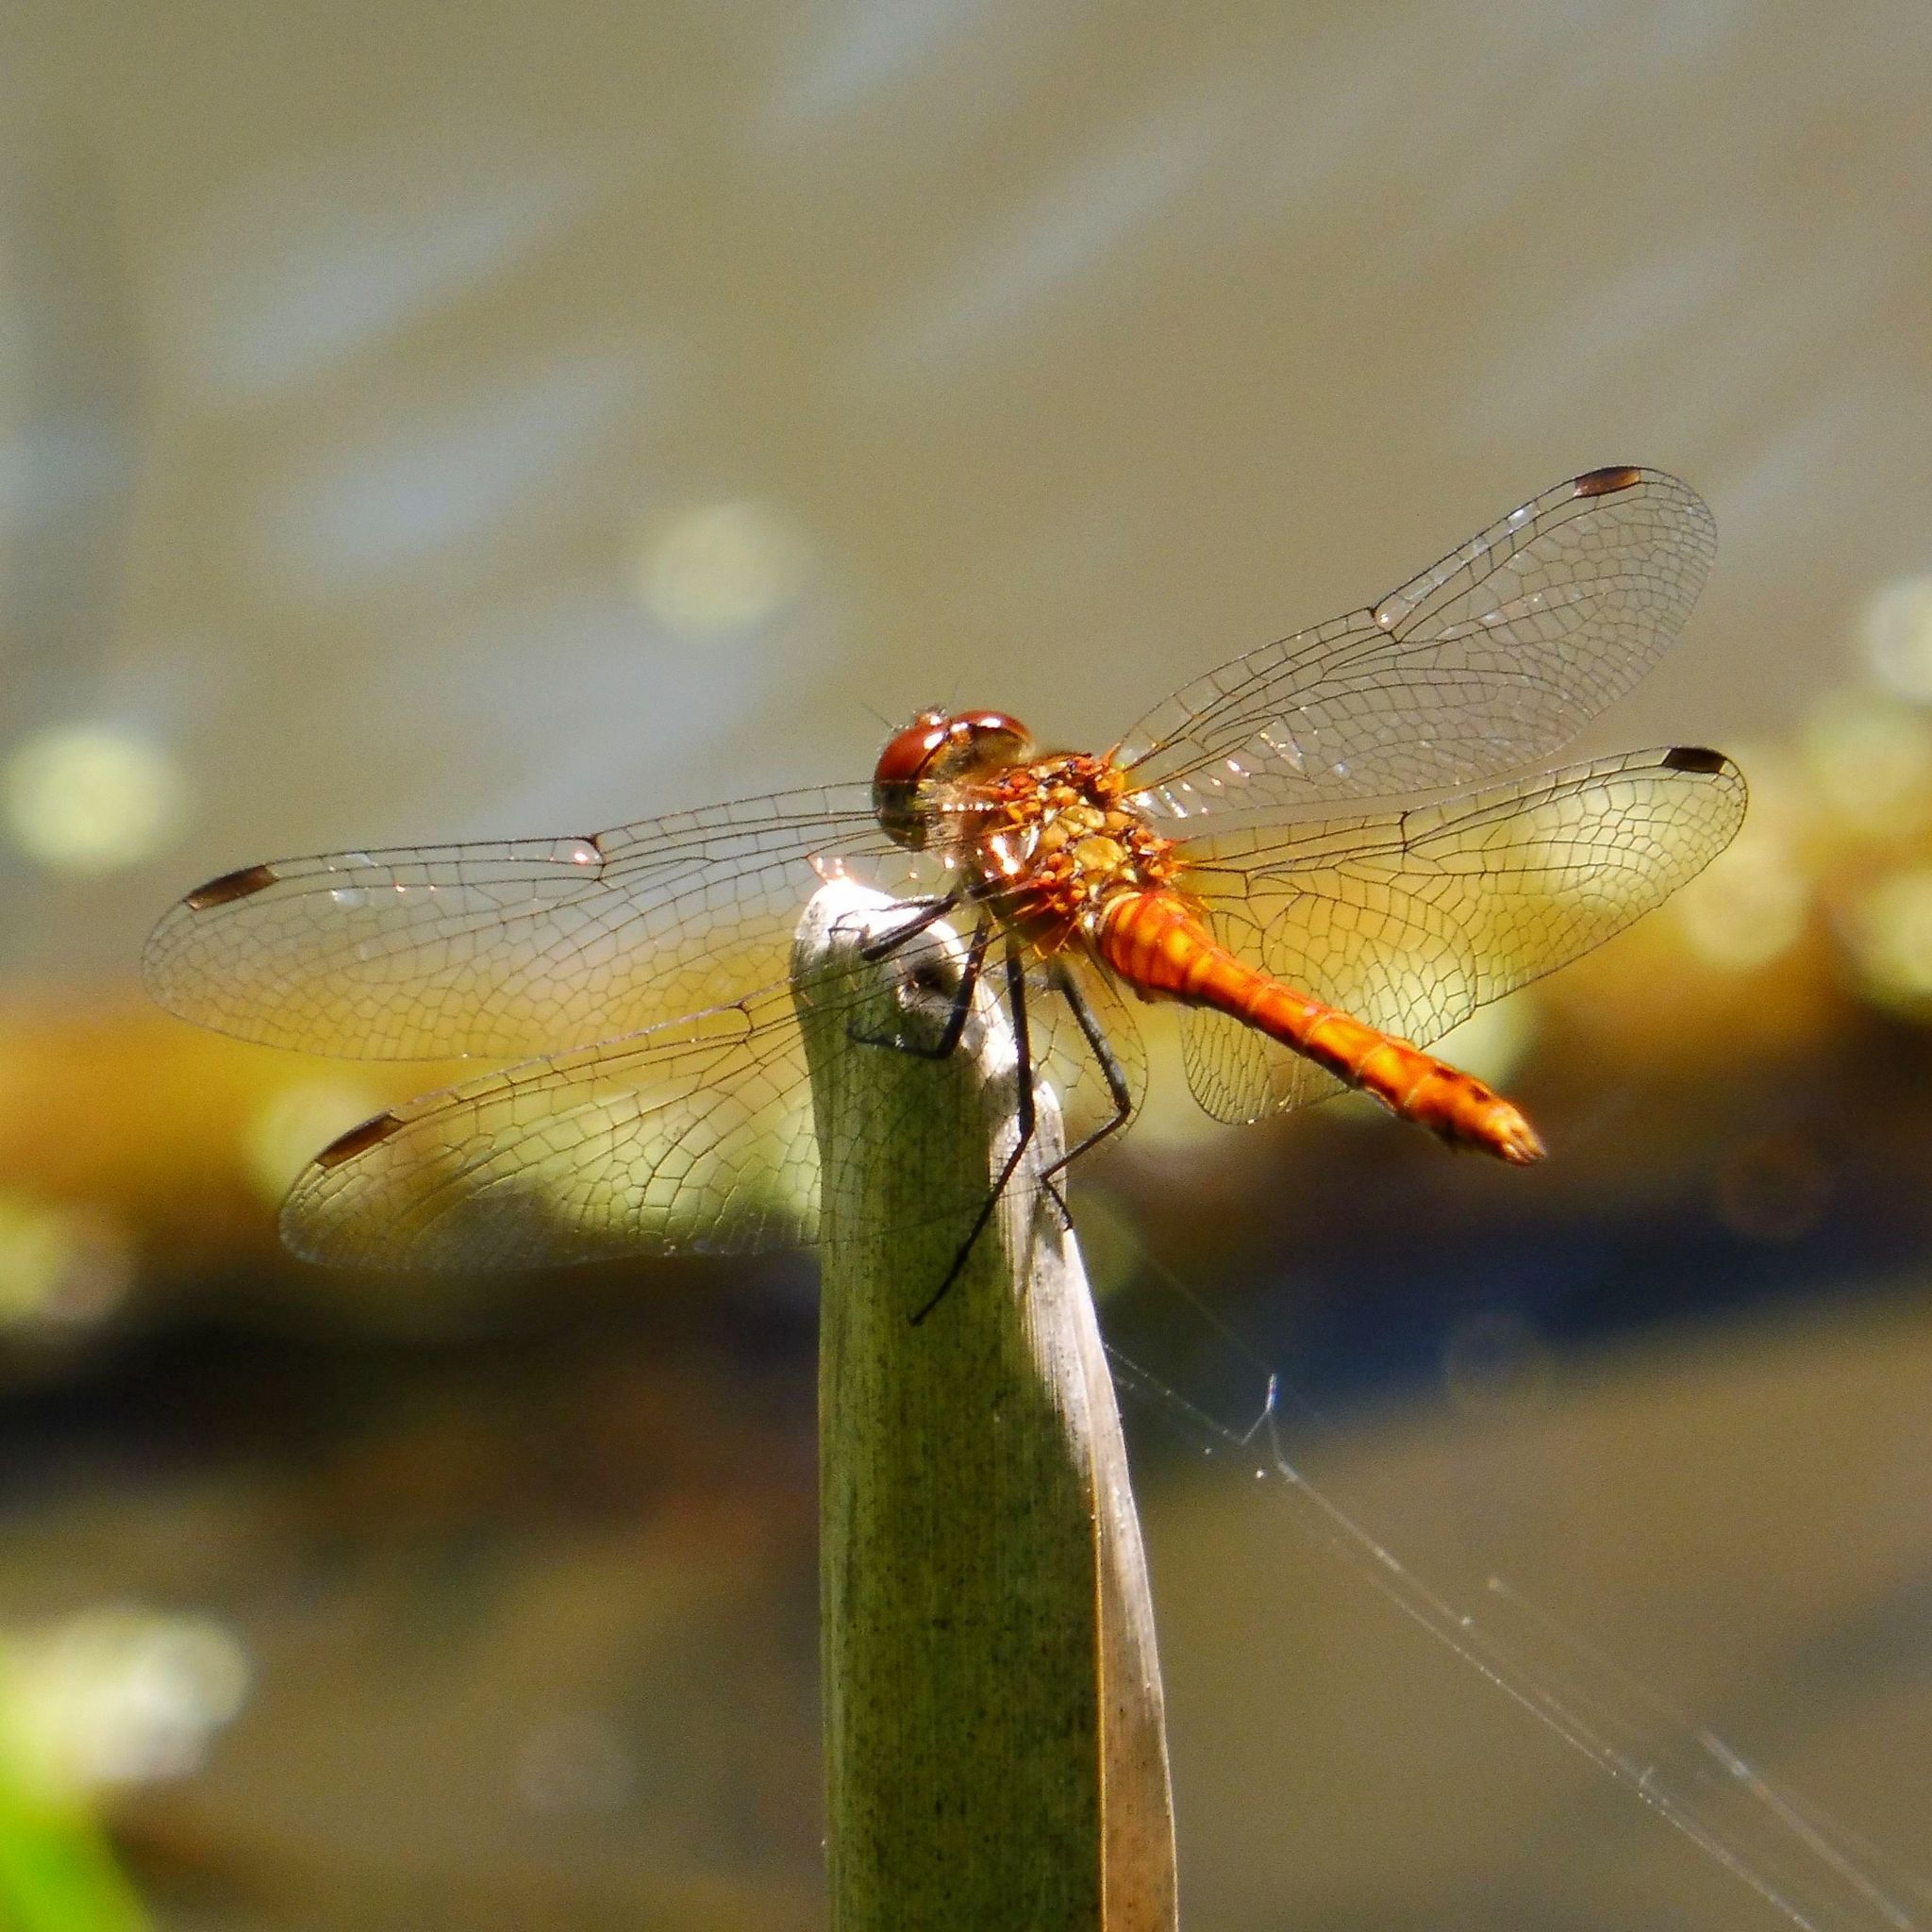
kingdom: Animalia
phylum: Arthropoda
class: Insecta
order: Odonata
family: Libellulidae
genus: Sympetrum
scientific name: Sympetrum sanguineum
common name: Ruddy darter
